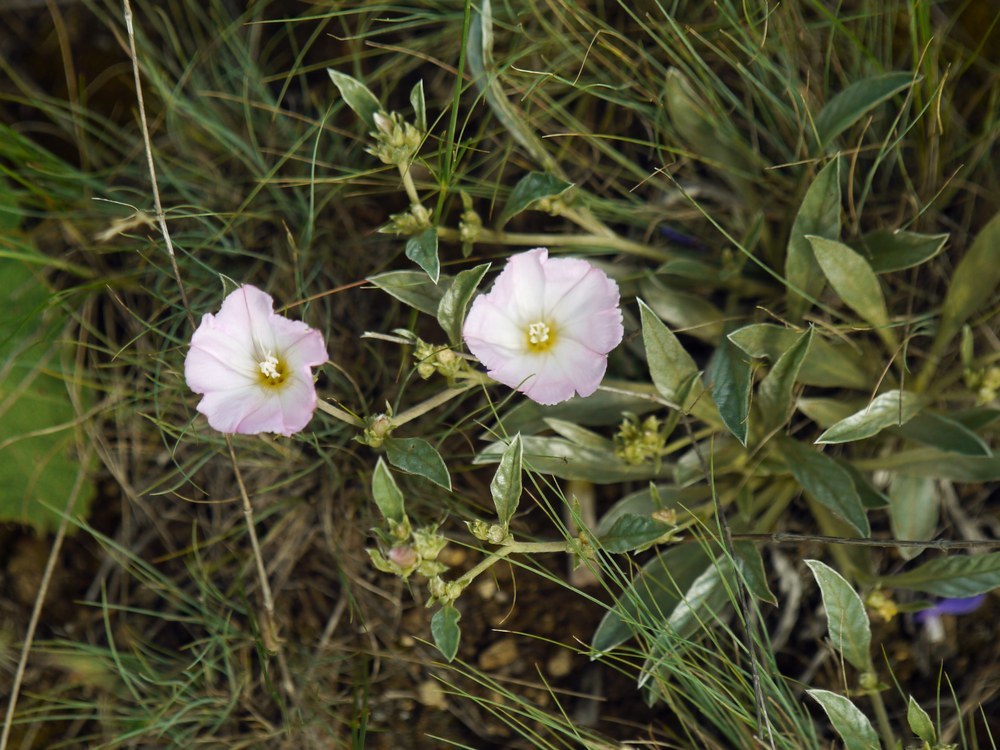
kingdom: Plantae
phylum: Tracheophyta
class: Magnoliopsida
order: Solanales
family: Convolvulaceae
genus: Convolvulus
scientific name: Convolvulus lineatus
